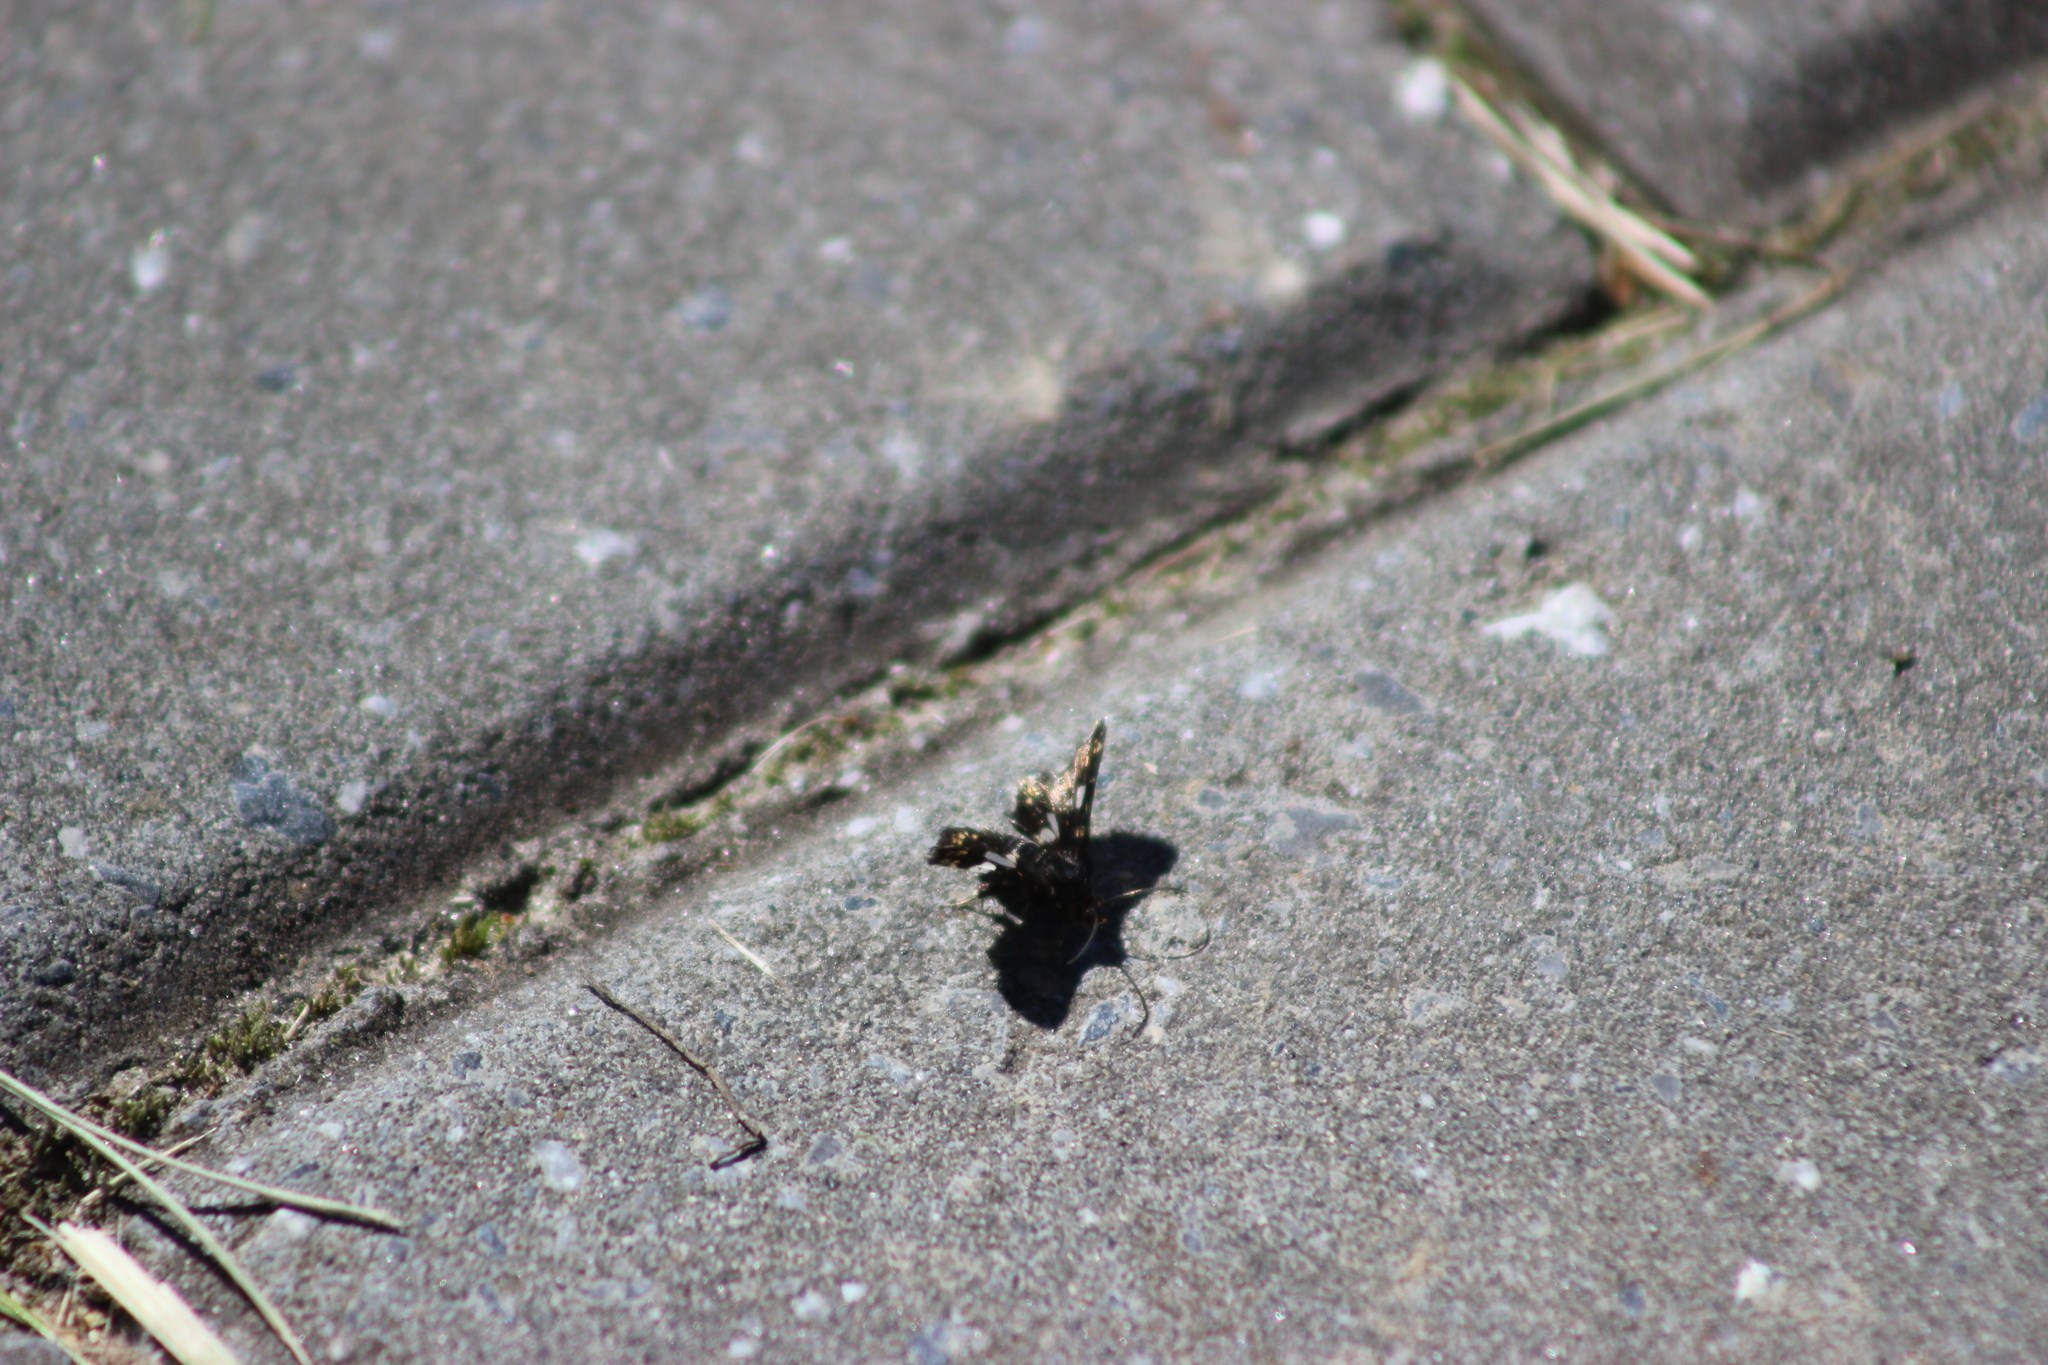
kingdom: Animalia
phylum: Arthropoda
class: Insecta
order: Lepidoptera
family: Thyrididae
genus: Thyris
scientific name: Thyris fenestrella
